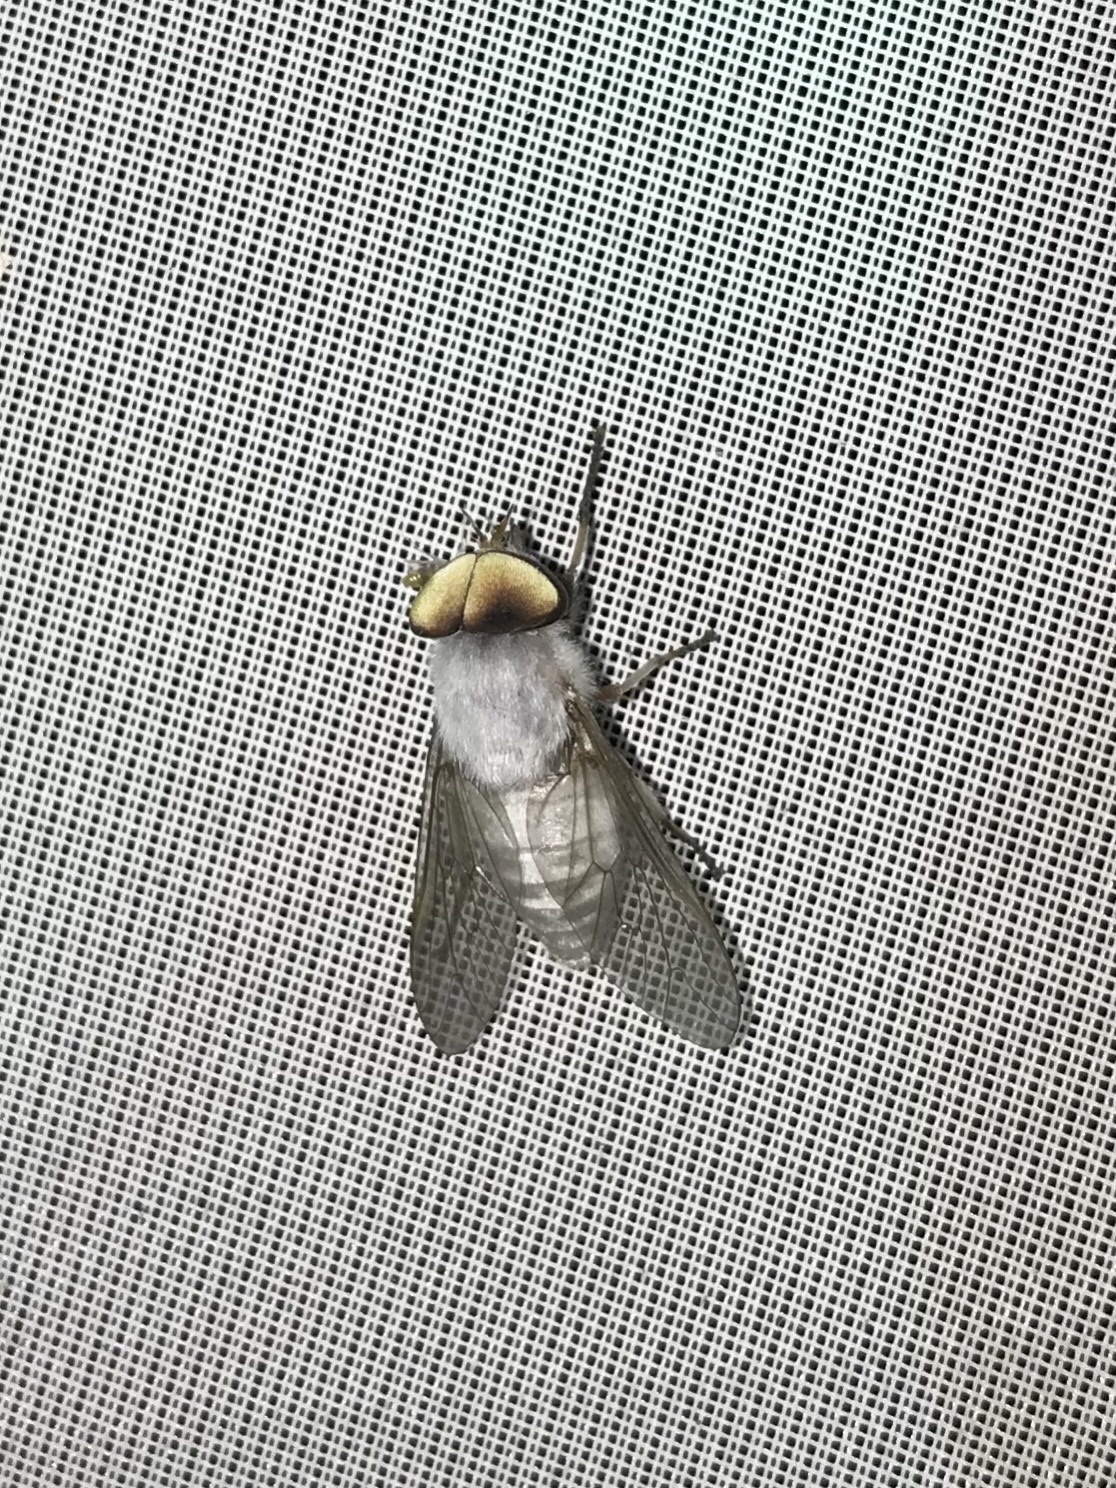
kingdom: Animalia
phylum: Arthropoda
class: Insecta
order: Diptera
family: Tabanidae
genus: Leucotabanus
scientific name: Leucotabanus annulatus
